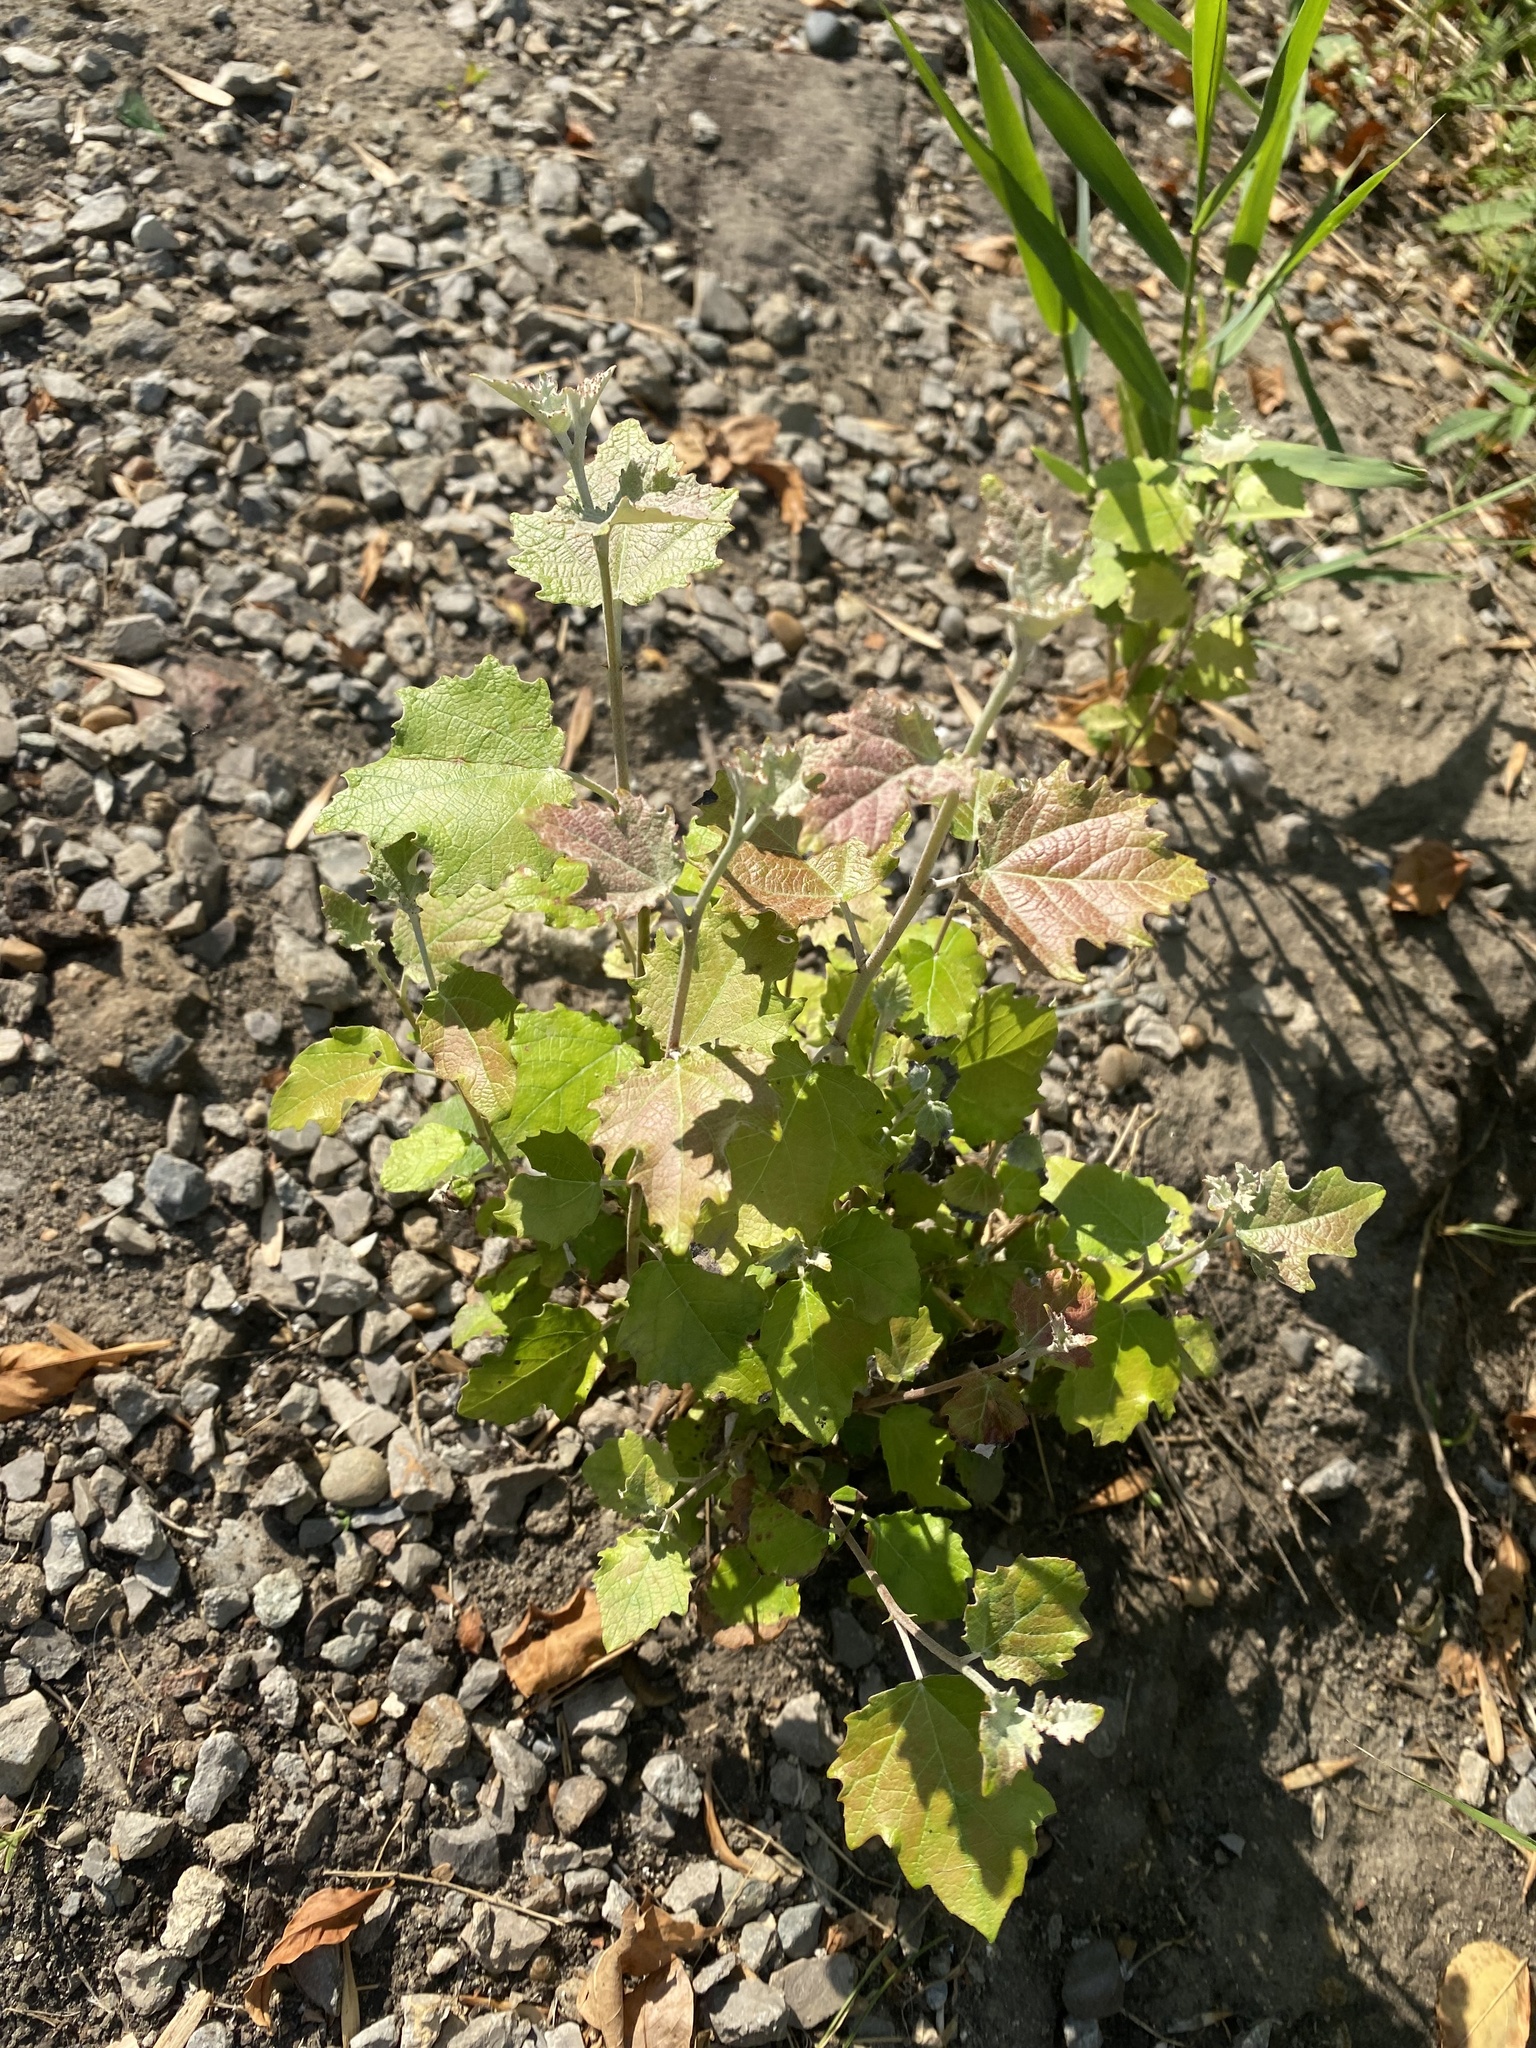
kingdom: Plantae
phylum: Tracheophyta
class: Magnoliopsida
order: Malpighiales
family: Salicaceae
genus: Populus
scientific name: Populus alba
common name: White poplar
